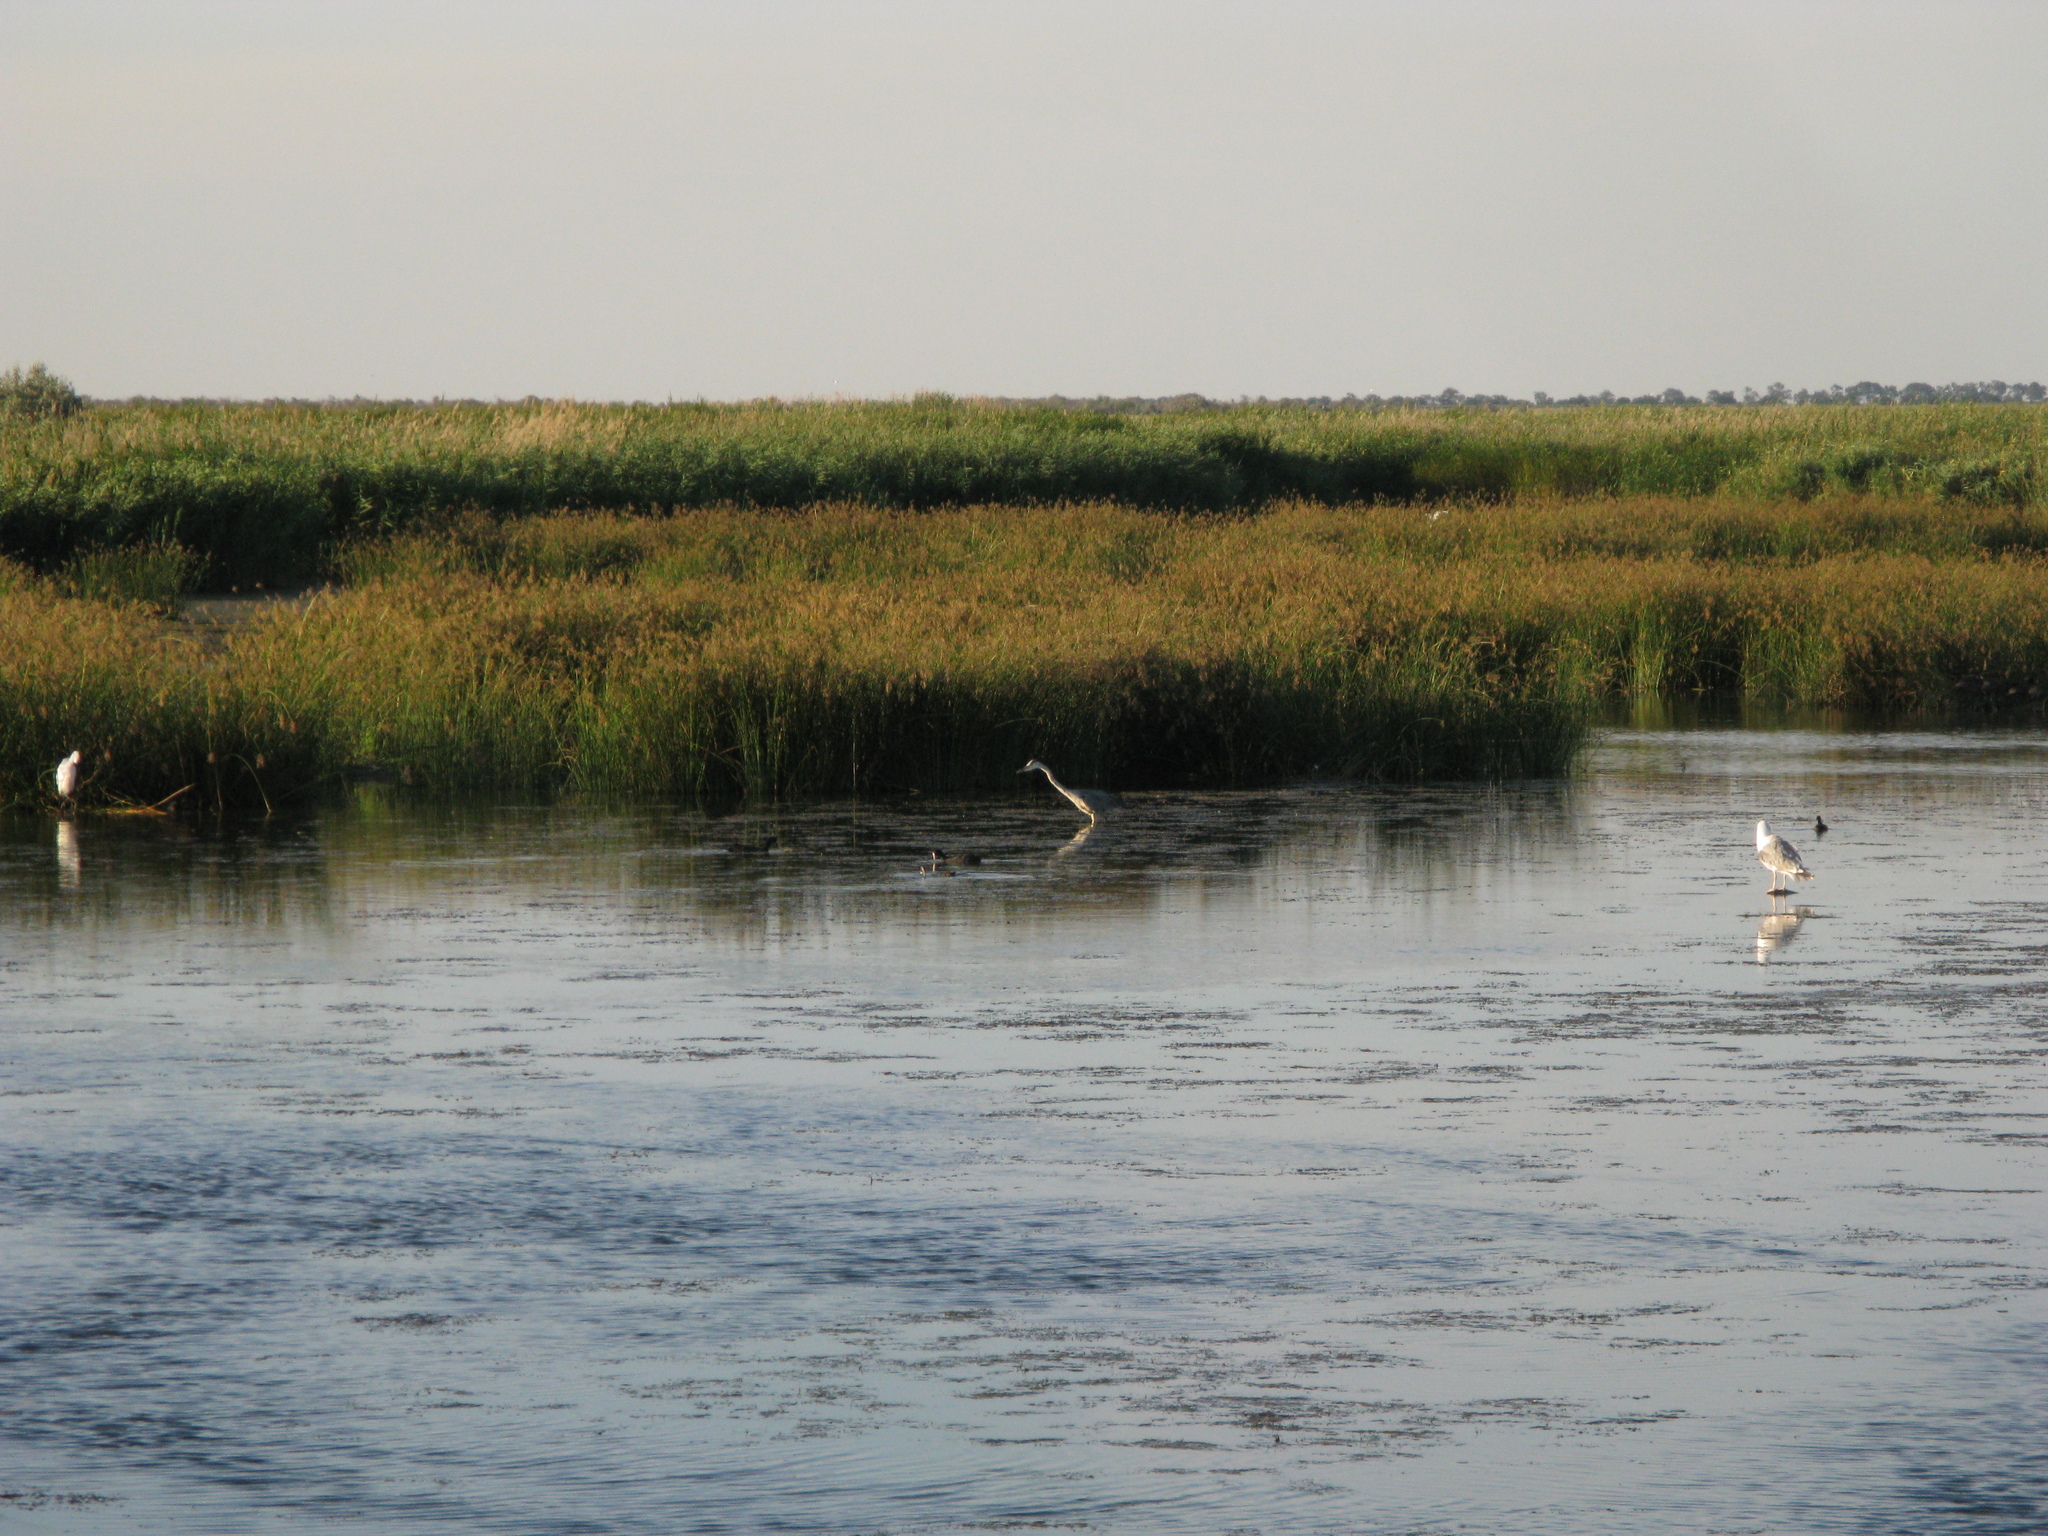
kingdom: Animalia
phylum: Chordata
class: Aves
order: Pelecaniformes
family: Ardeidae
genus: Ardea
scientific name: Ardea cinerea
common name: Grey heron
